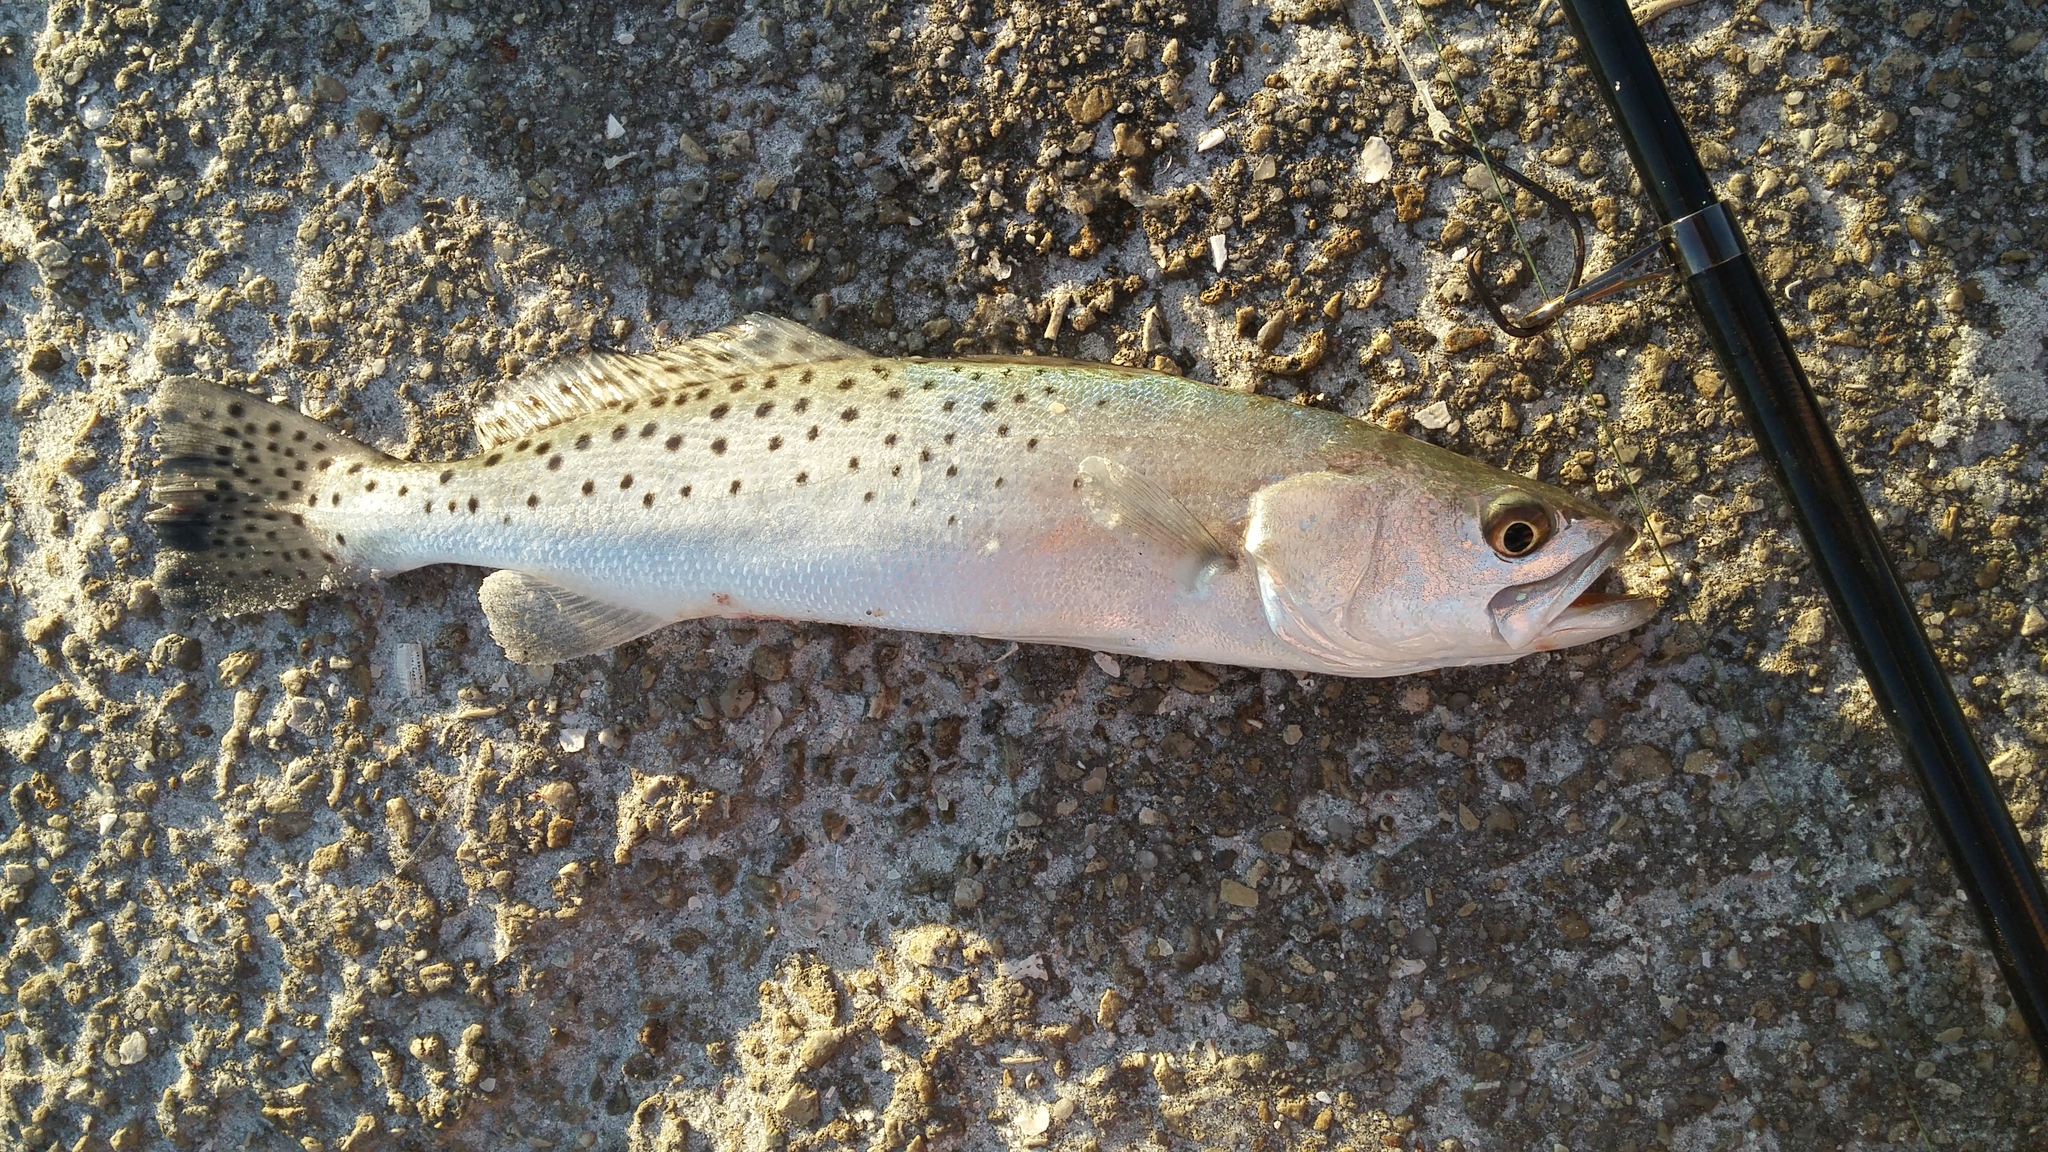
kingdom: Animalia
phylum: Chordata
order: Perciformes
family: Sciaenidae
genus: Cynoscion
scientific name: Cynoscion nebulosus
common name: Spotted seatrout
